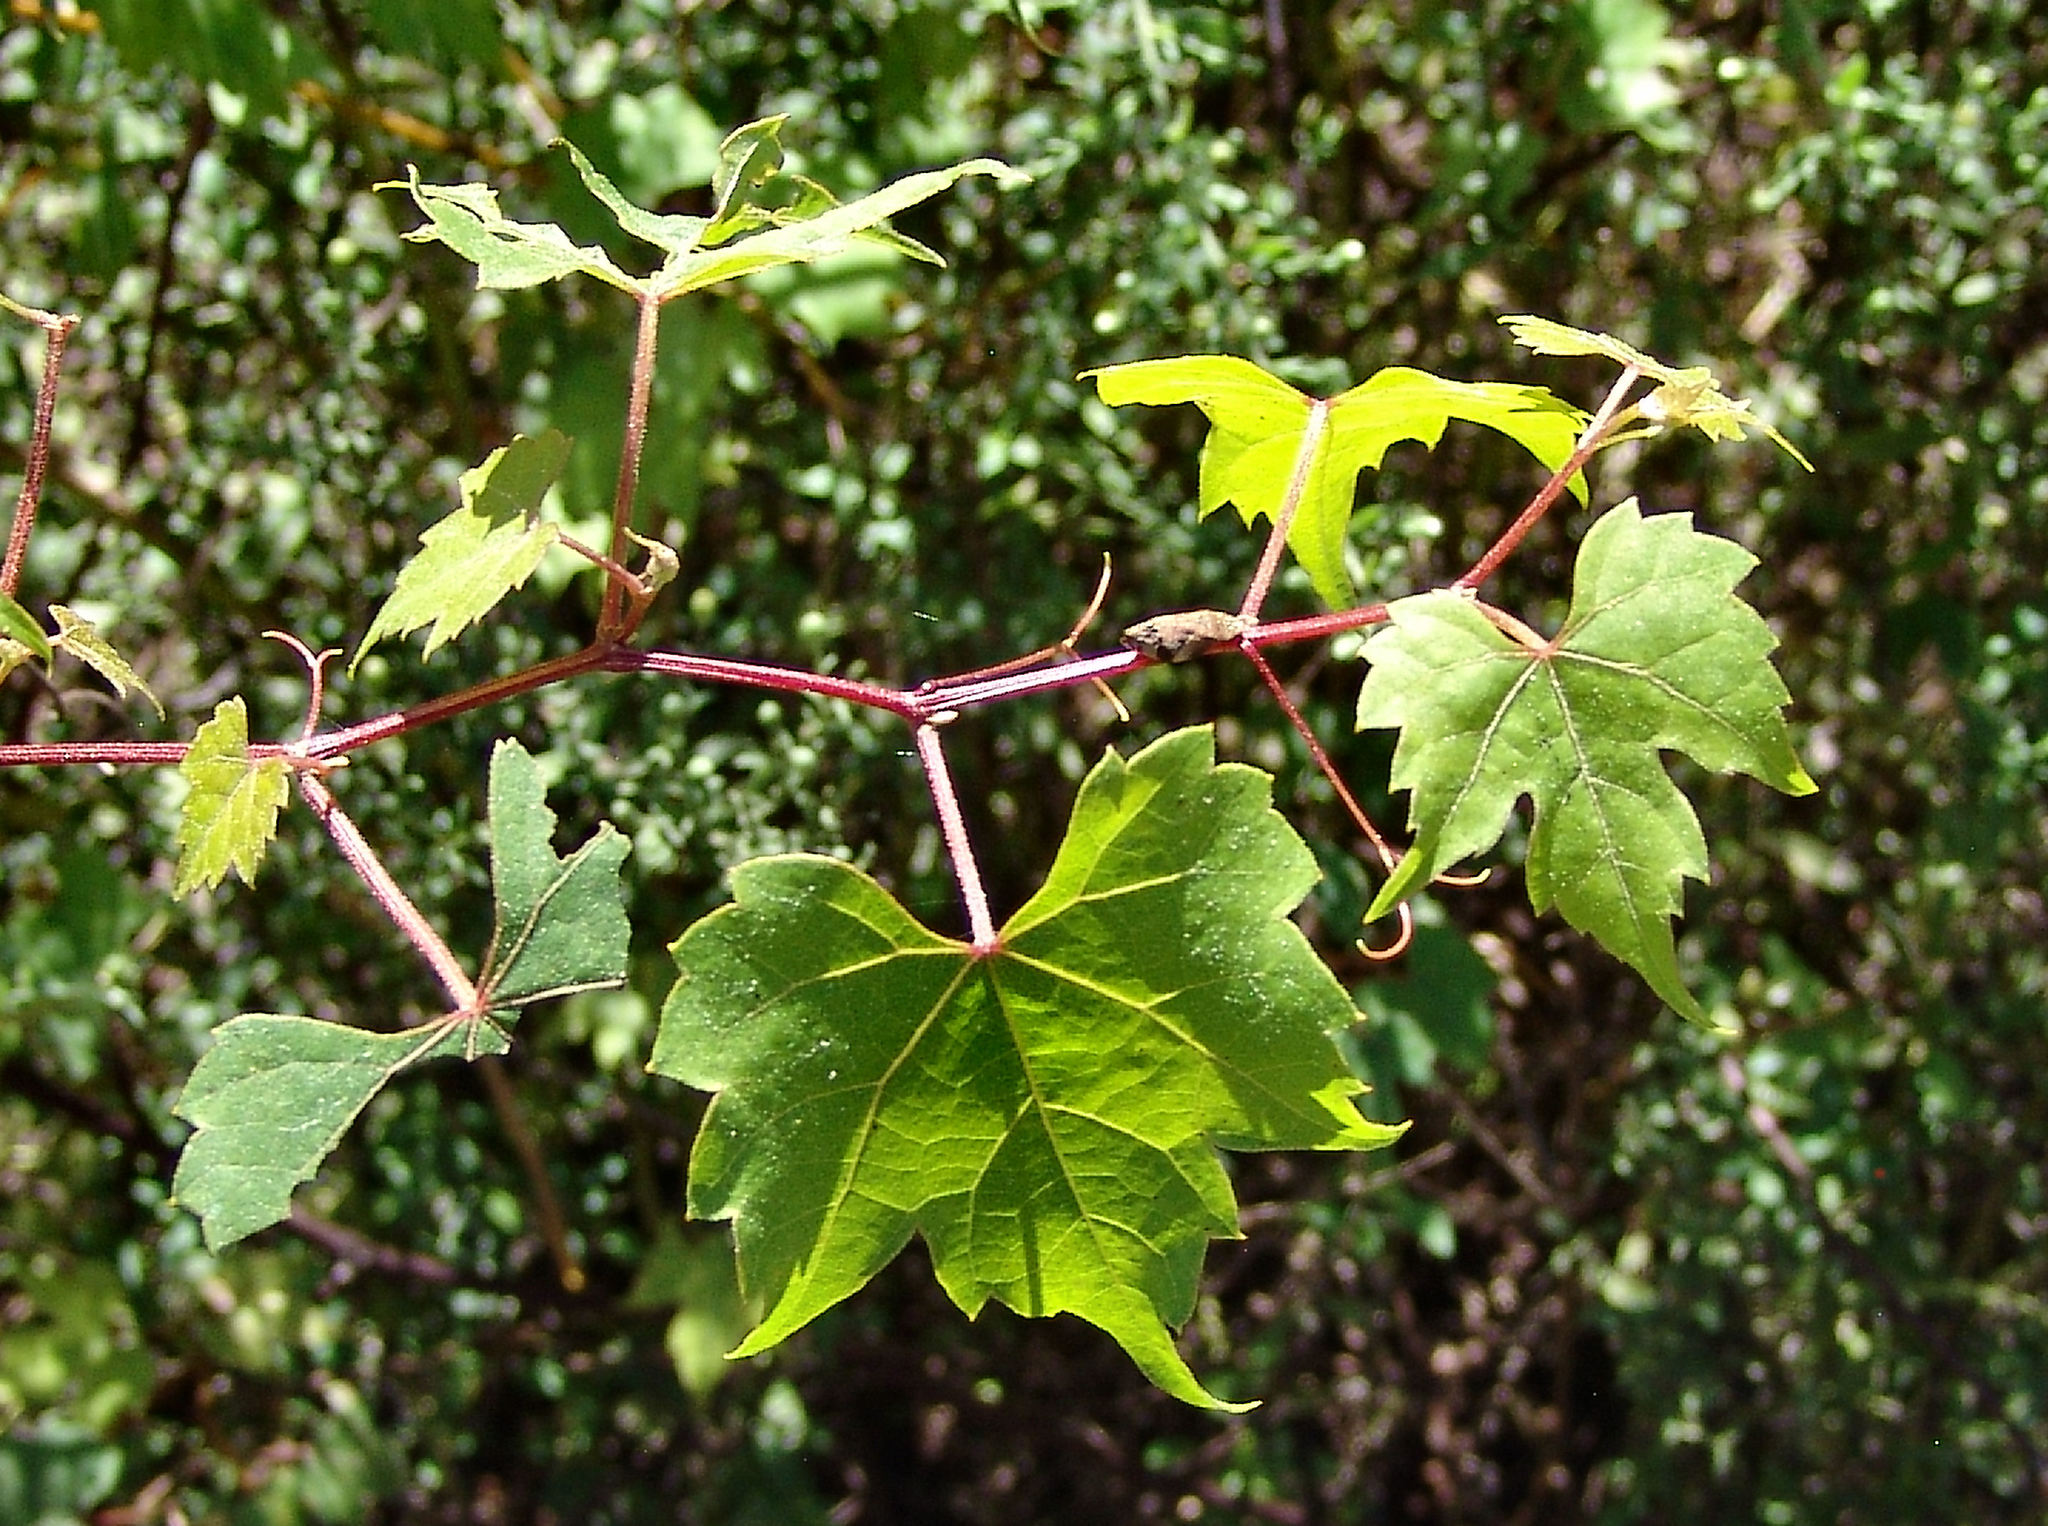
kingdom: Plantae
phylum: Tracheophyta
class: Magnoliopsida
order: Vitales
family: Vitaceae
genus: Vitis
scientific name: Vitis palmata
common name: Catbird grape
